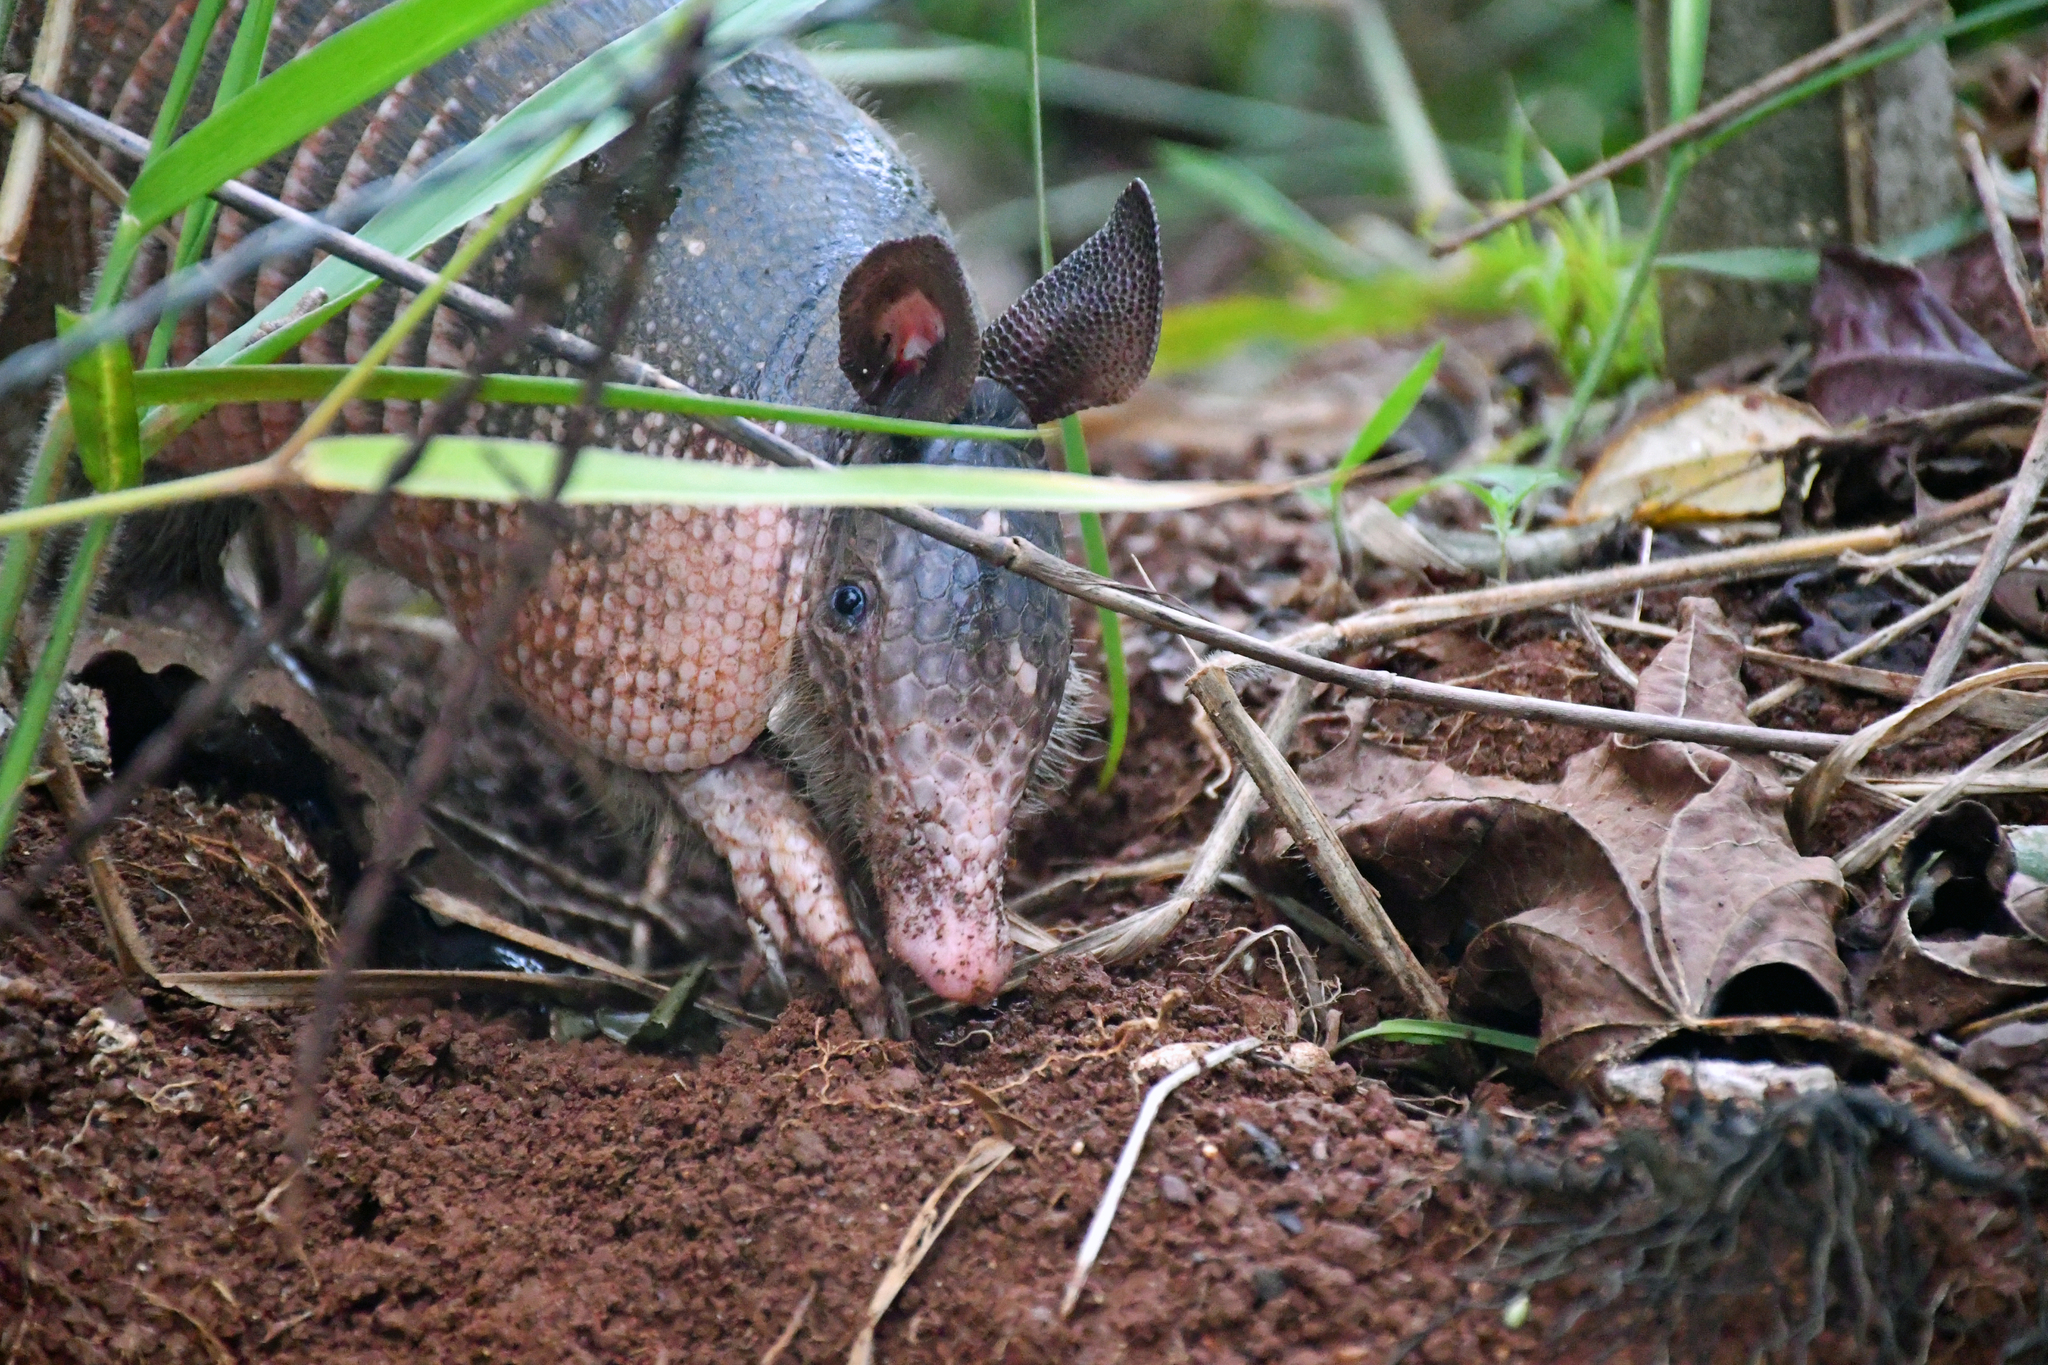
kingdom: Animalia
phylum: Chordata
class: Mammalia
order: Cingulata
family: Dasypodidae
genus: Dasypus
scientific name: Dasypus novemcinctus
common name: Nine-banded armadillo
